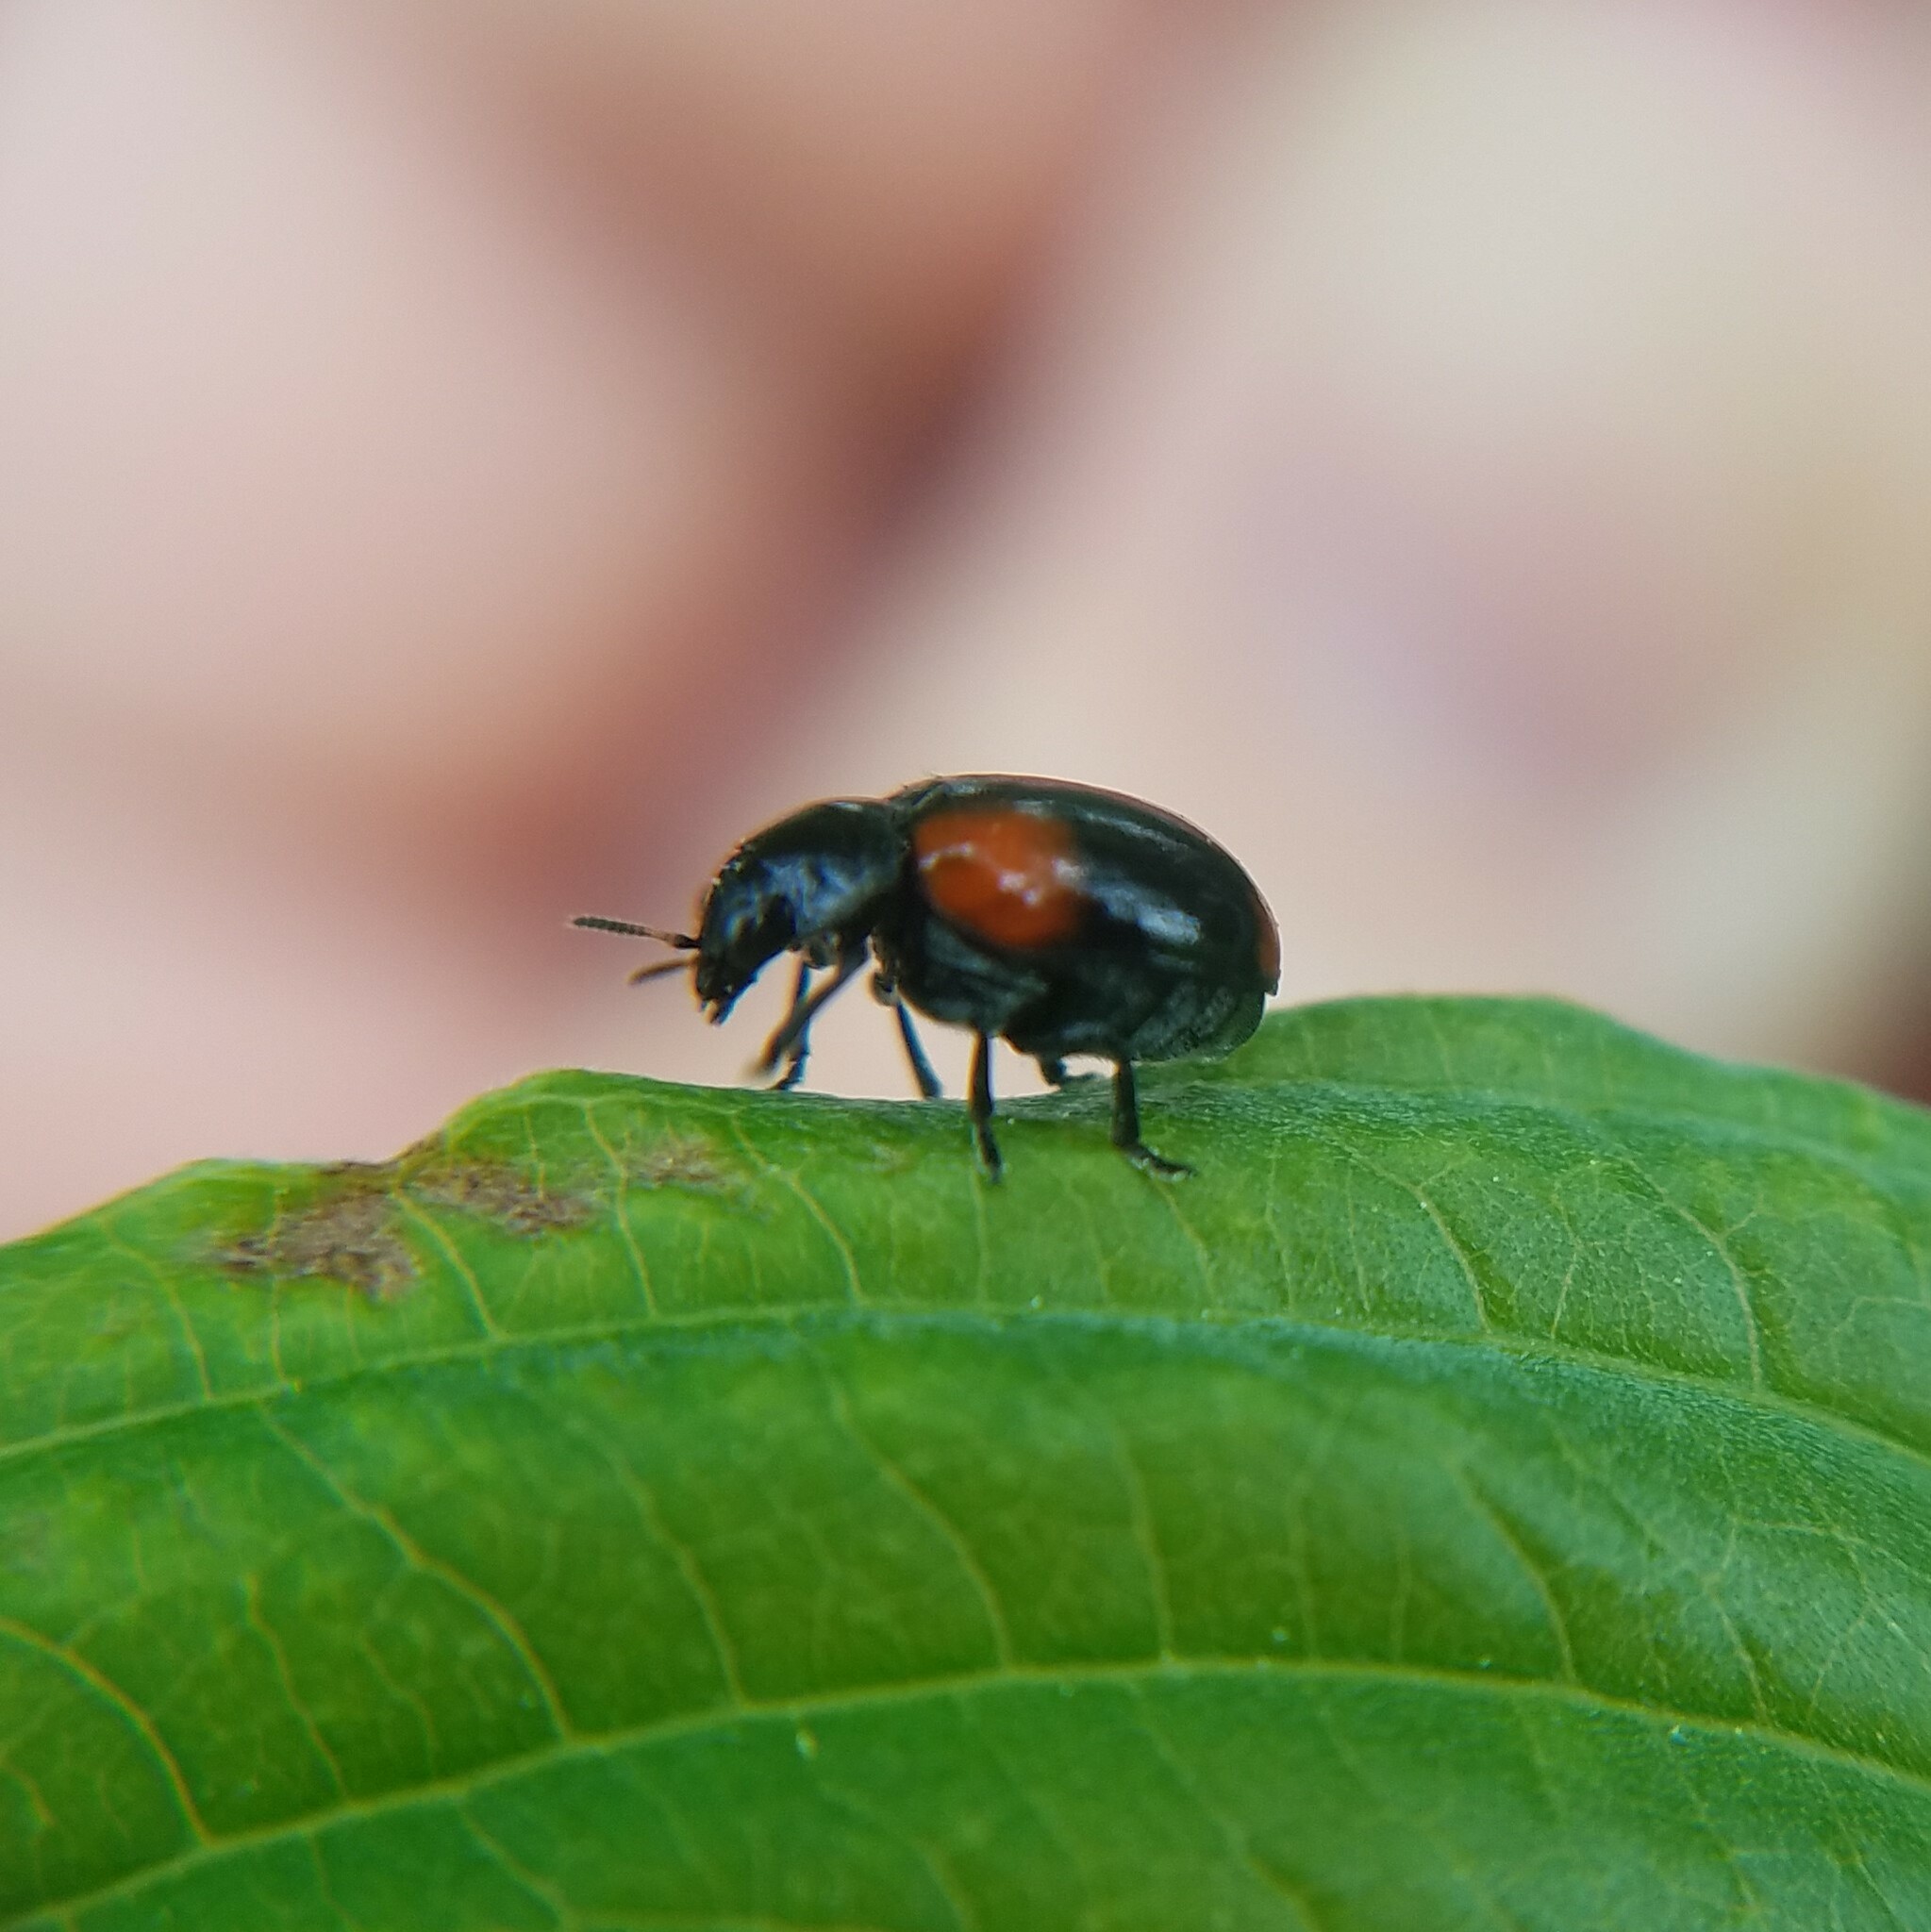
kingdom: Animalia
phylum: Arthropoda
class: Insecta
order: Coleoptera
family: Chrysomelidae
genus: Babia
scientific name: Babia quadriguttata
